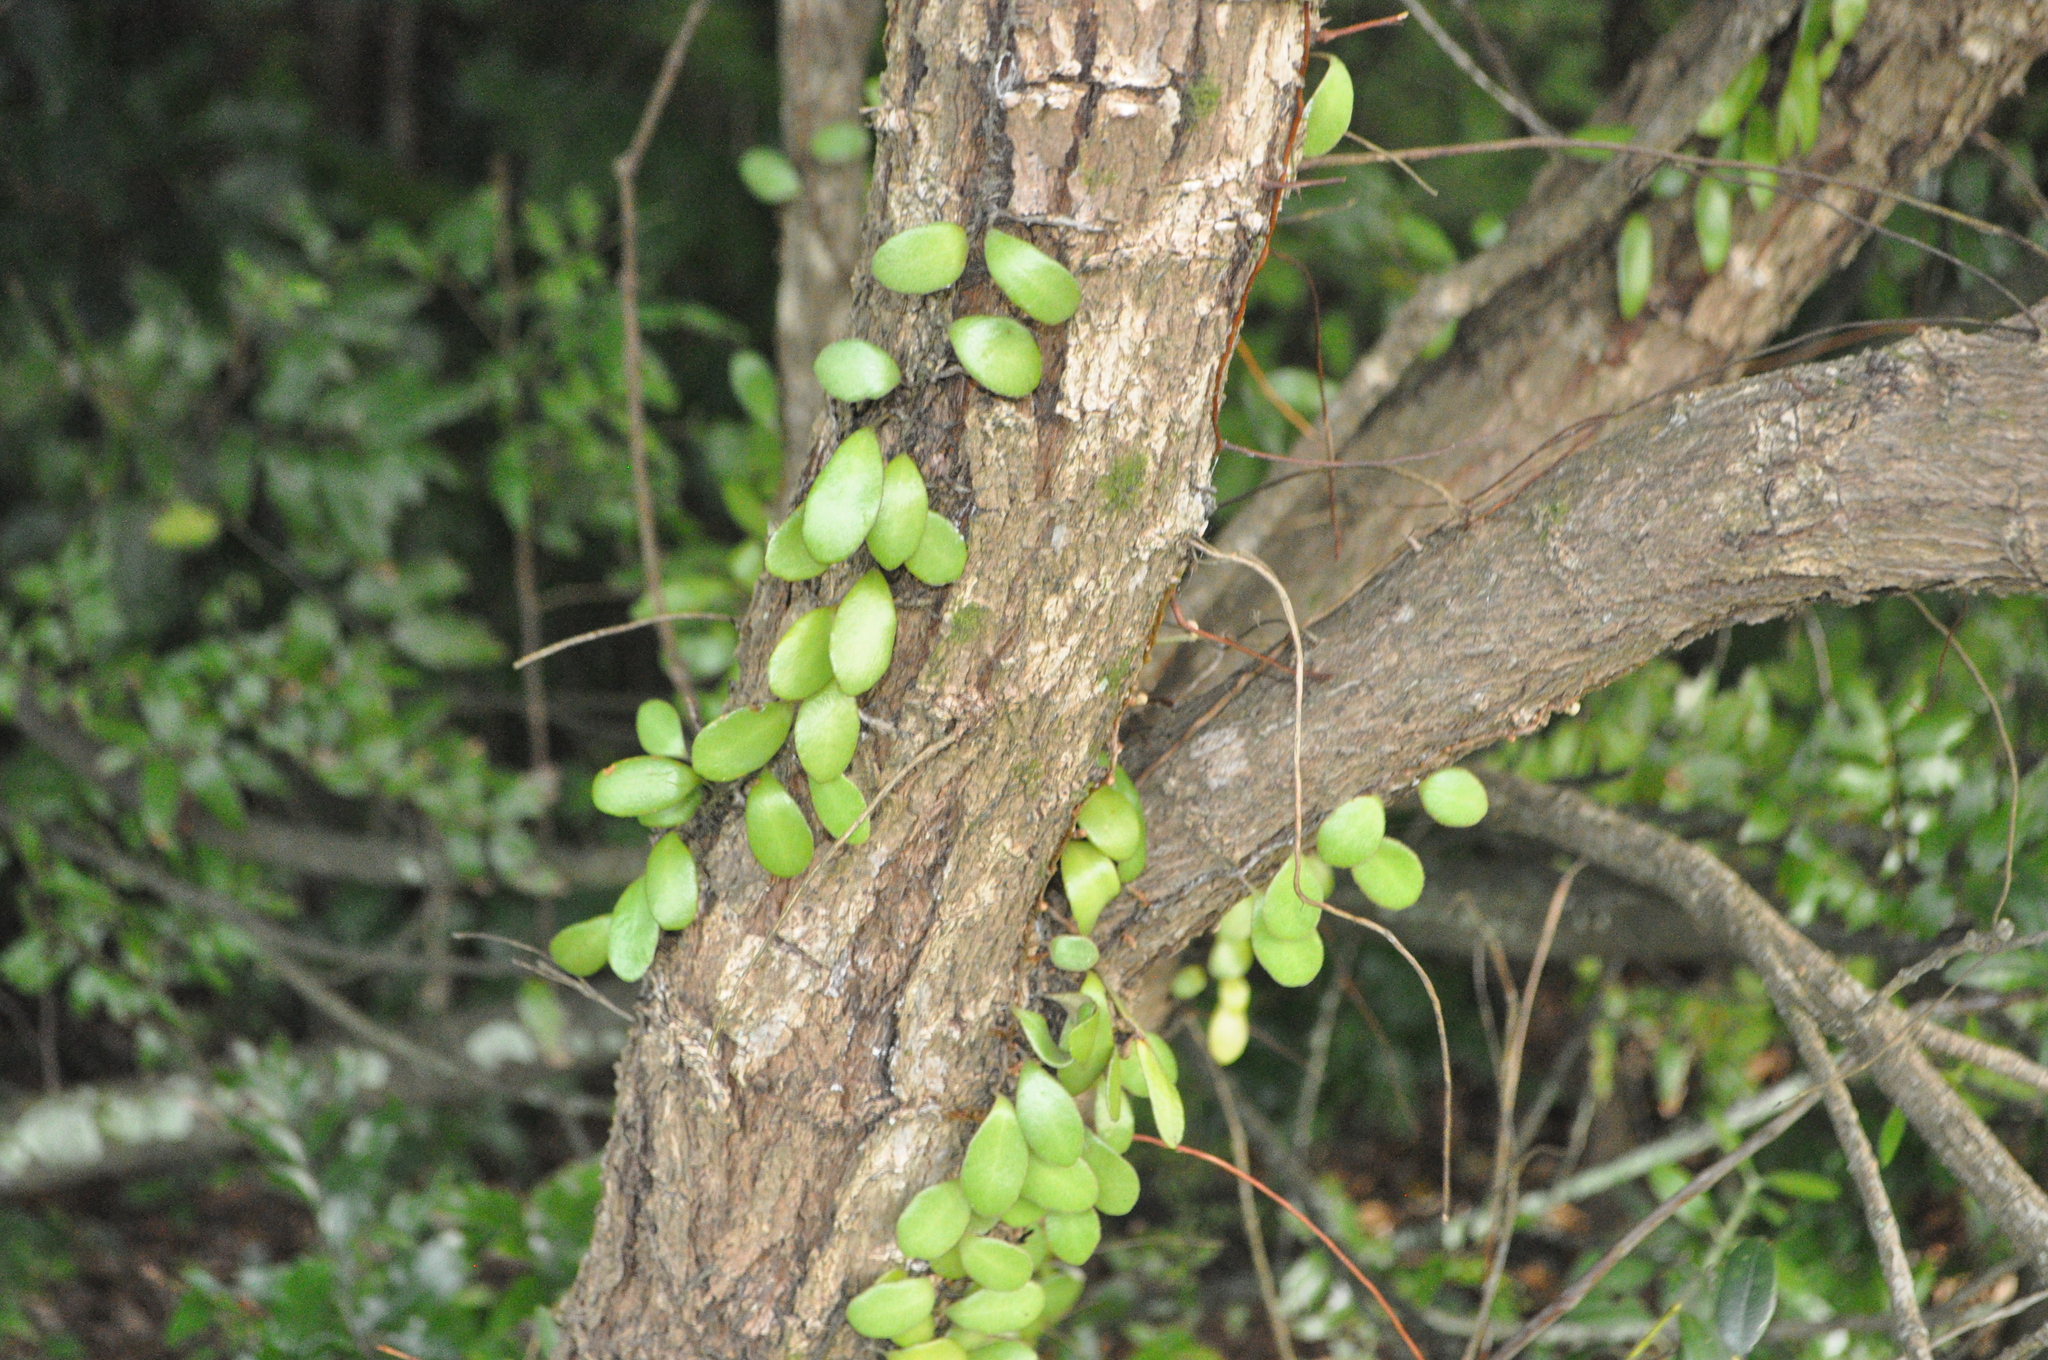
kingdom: Plantae
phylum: Tracheophyta
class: Polypodiopsida
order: Polypodiales
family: Polypodiaceae
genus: Pyrrosia
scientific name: Pyrrosia eleagnifolia
